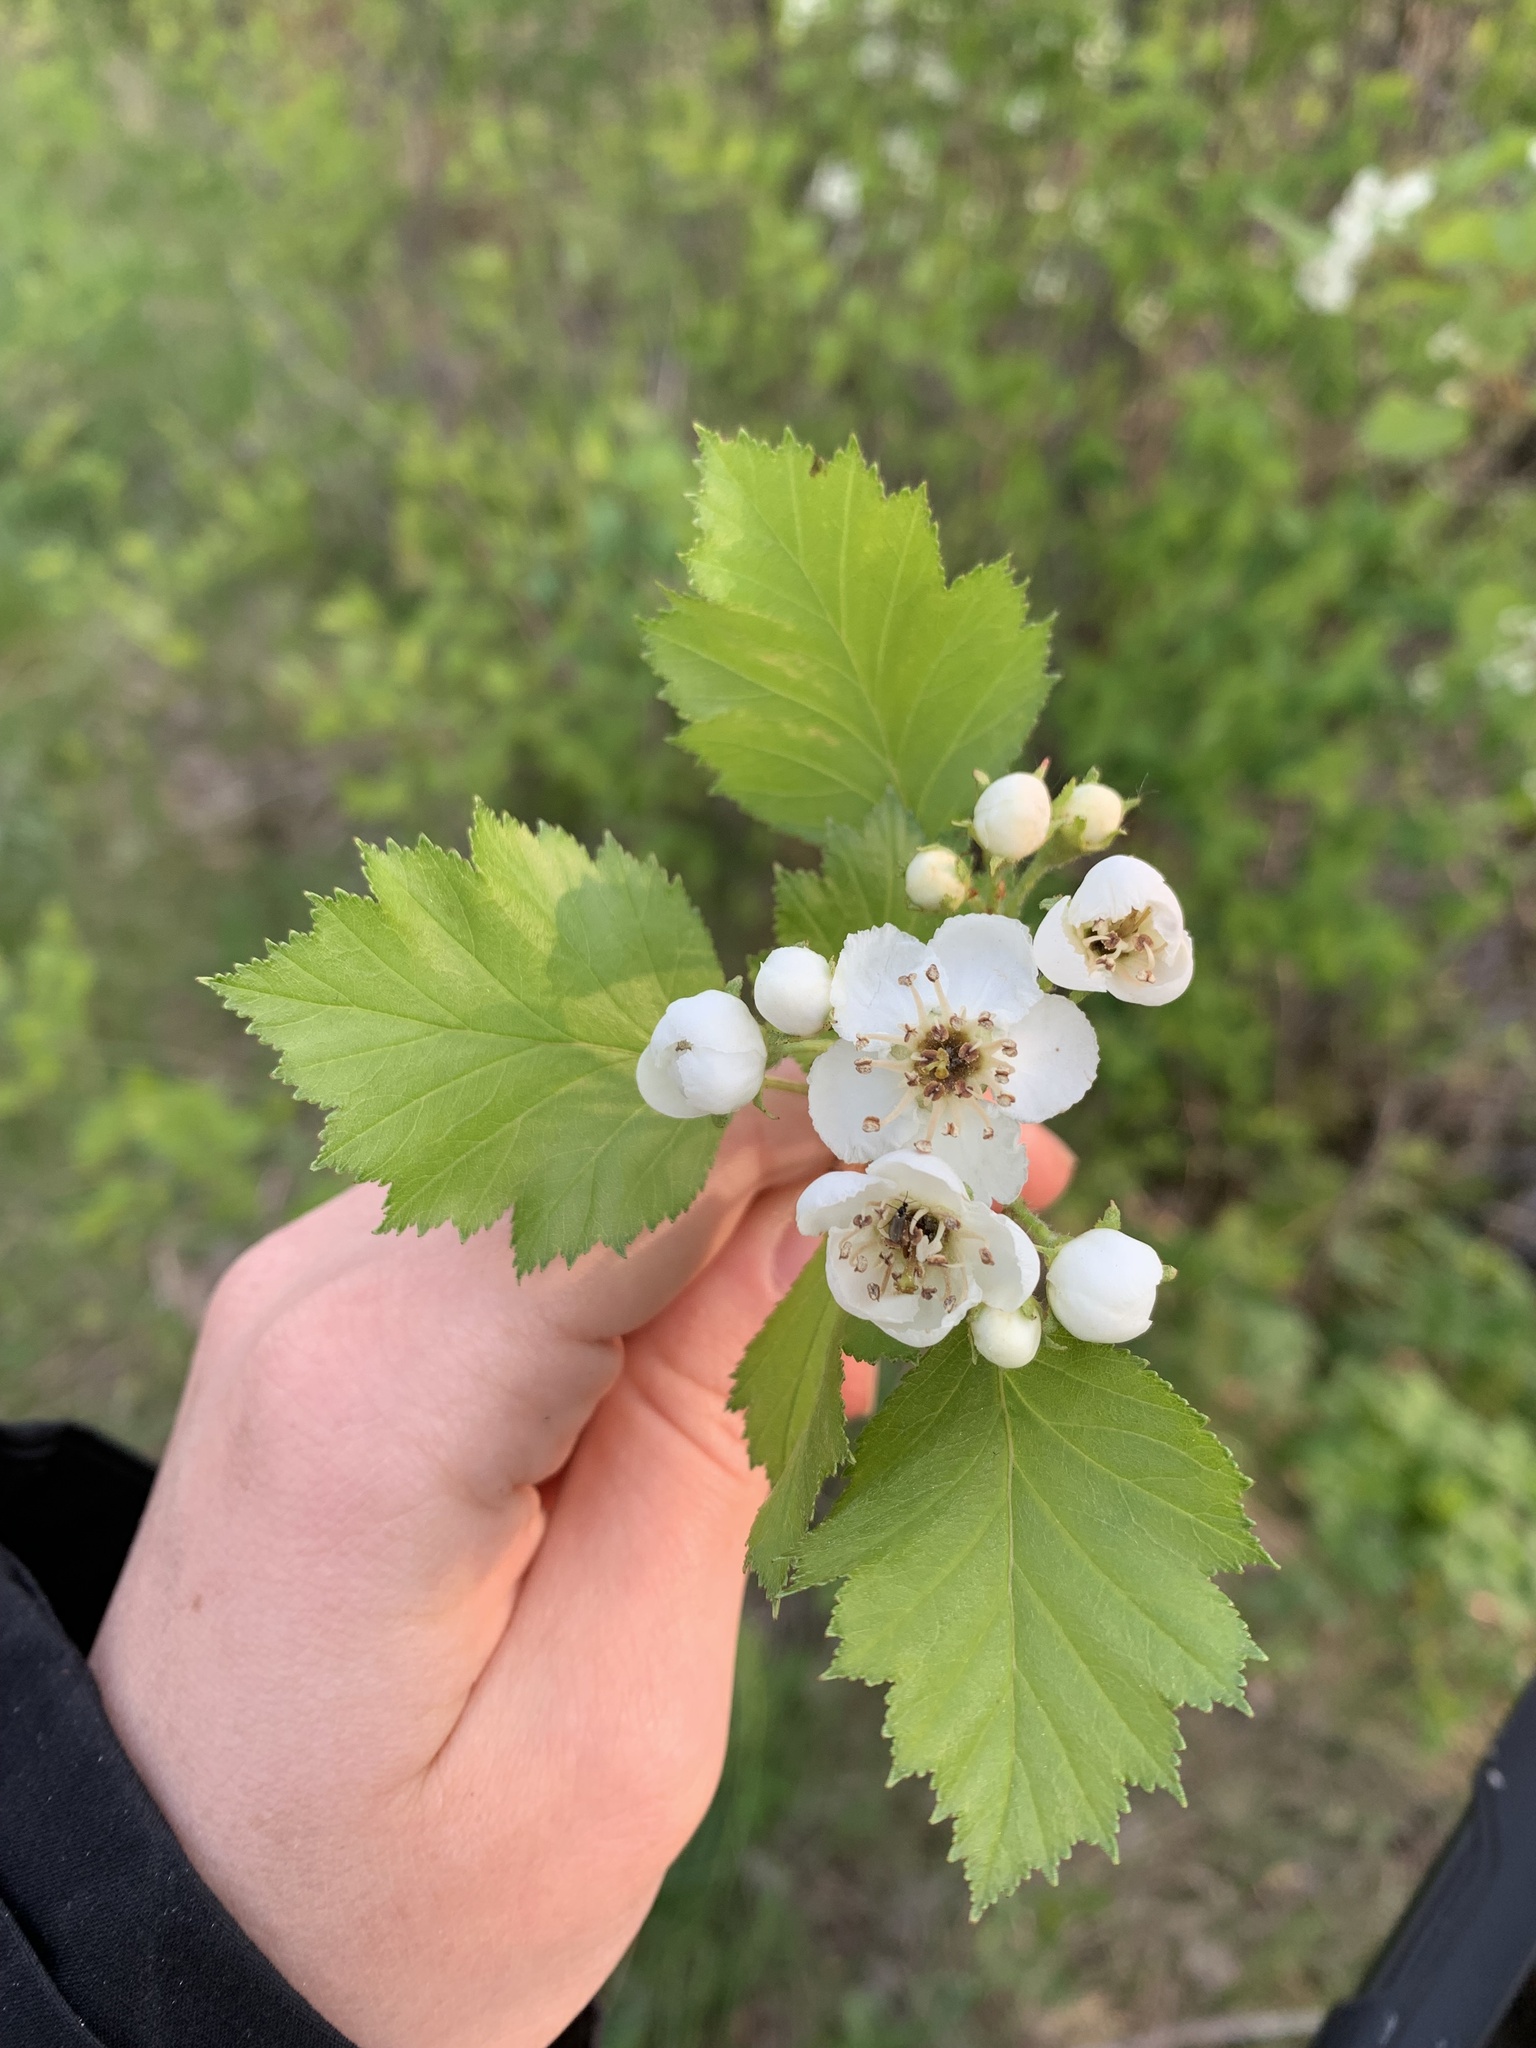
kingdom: Plantae
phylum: Tracheophyta
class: Magnoliopsida
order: Rosales
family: Rosaceae
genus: Crataegus
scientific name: Crataegus submollis
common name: Hairy cockspurthorn
